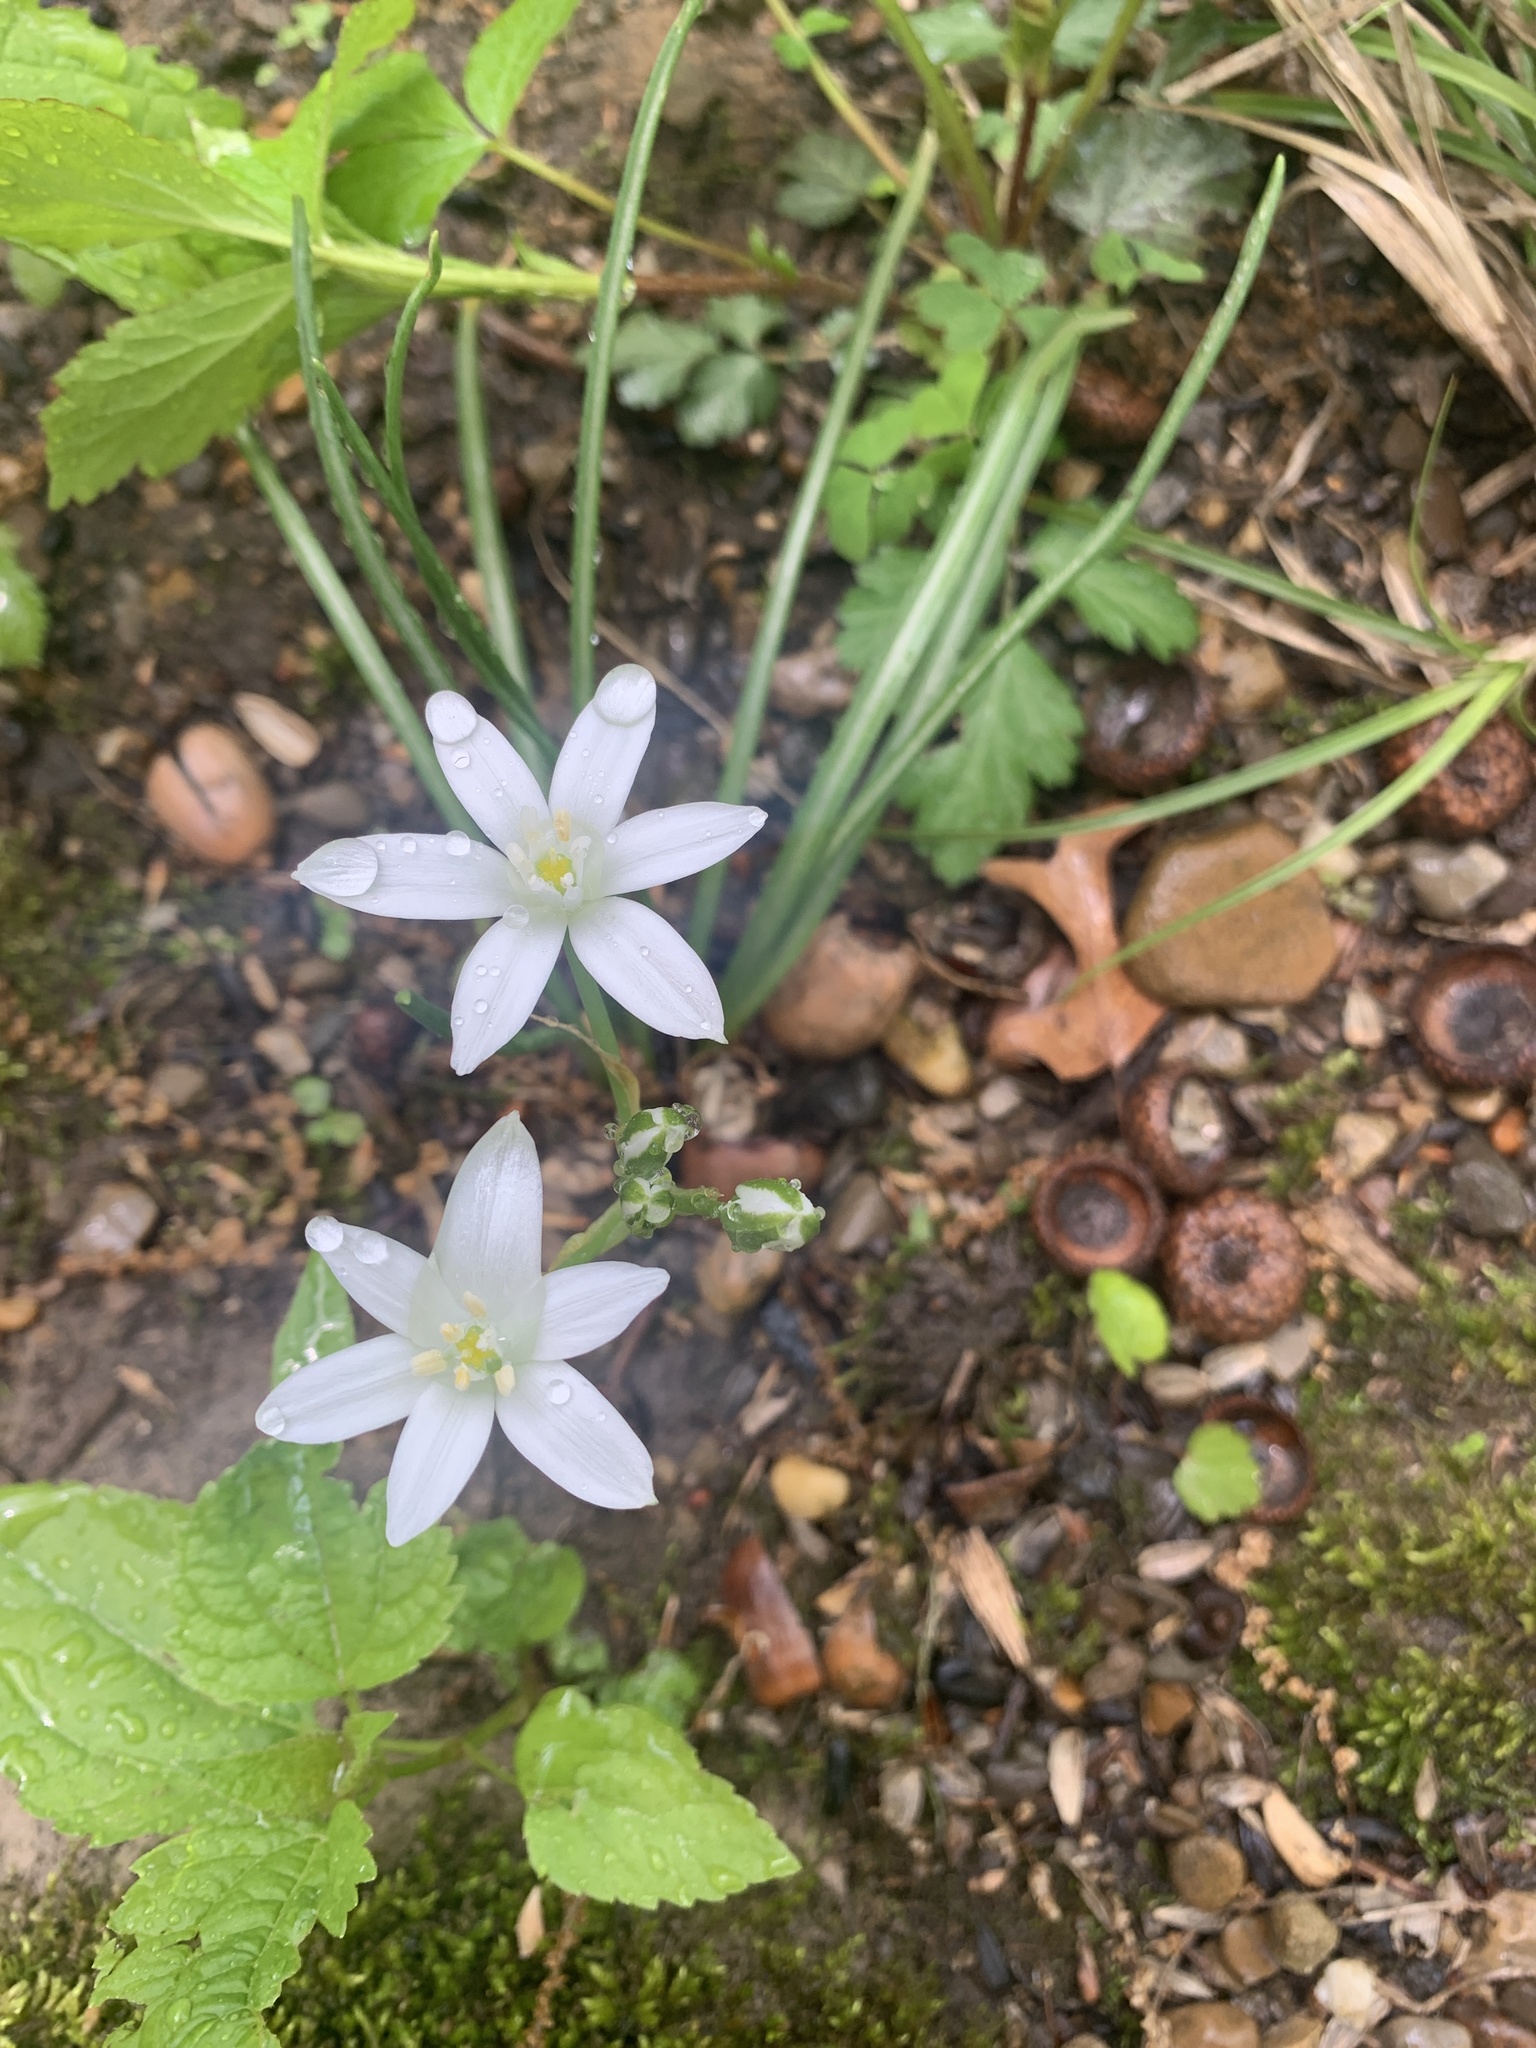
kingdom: Plantae
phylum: Tracheophyta
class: Liliopsida
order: Asparagales
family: Asparagaceae
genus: Ornithogalum
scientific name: Ornithogalum umbellatum
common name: Garden star-of-bethlehem
